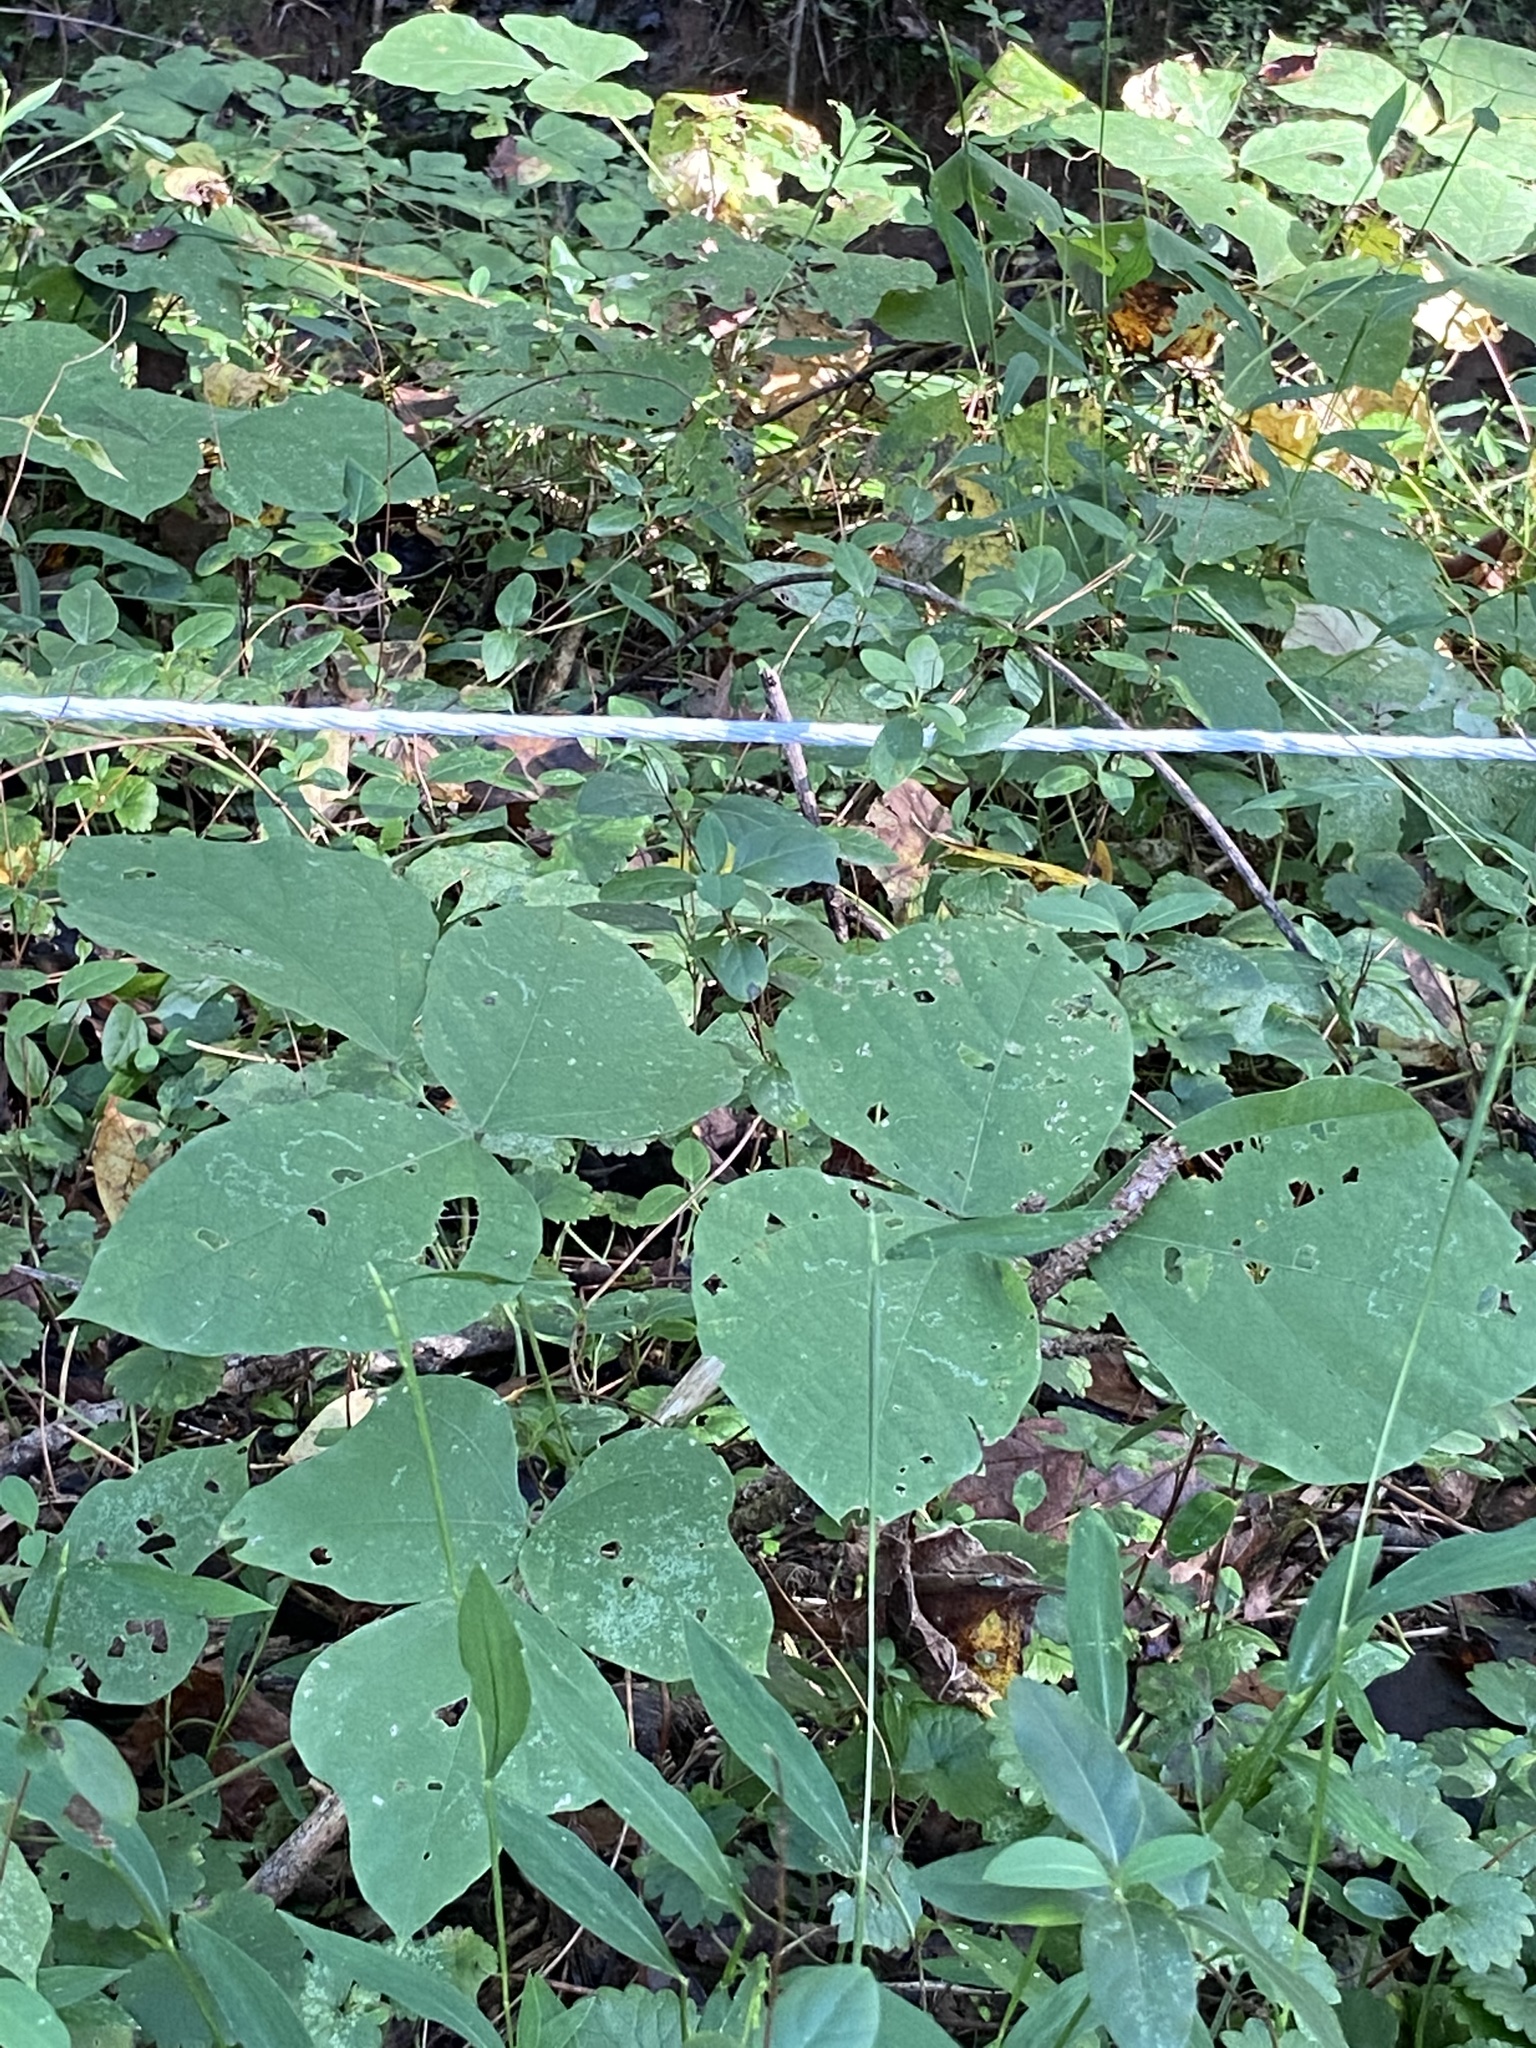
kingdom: Plantae
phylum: Tracheophyta
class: Magnoliopsida
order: Fabales
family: Fabaceae
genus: Pueraria
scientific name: Pueraria montana
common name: Kudzu
